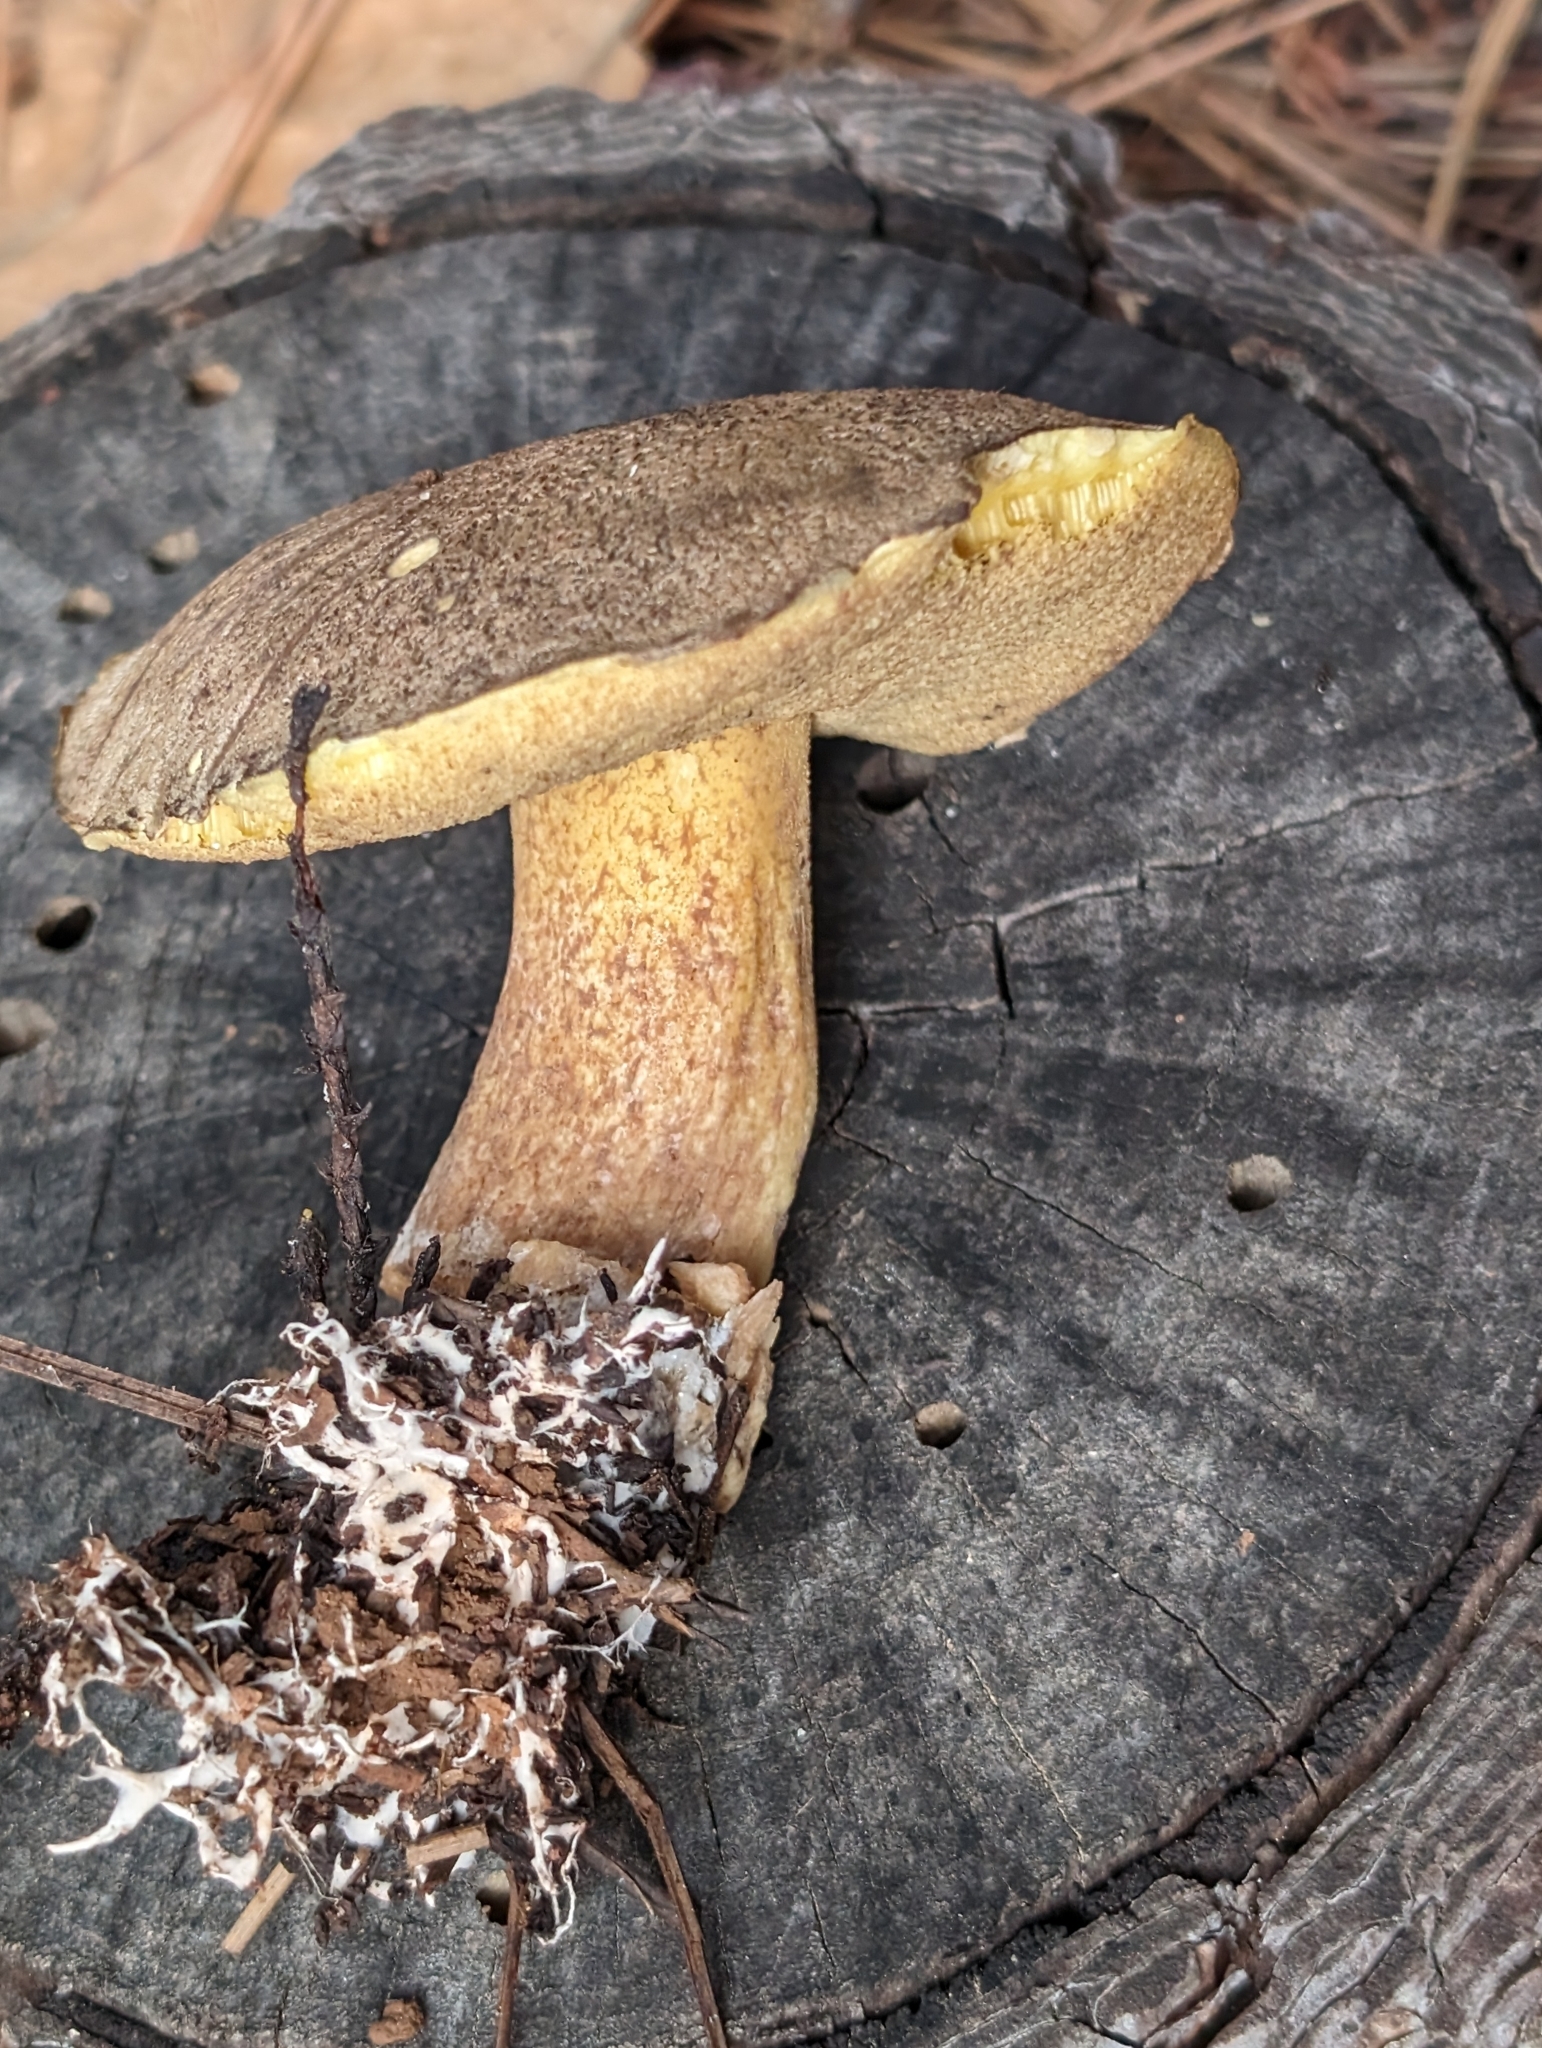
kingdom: Fungi
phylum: Basidiomycota
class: Agaricomycetes
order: Boletales
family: Suillaceae
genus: Suillus
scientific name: Suillus fuscotomentosus
